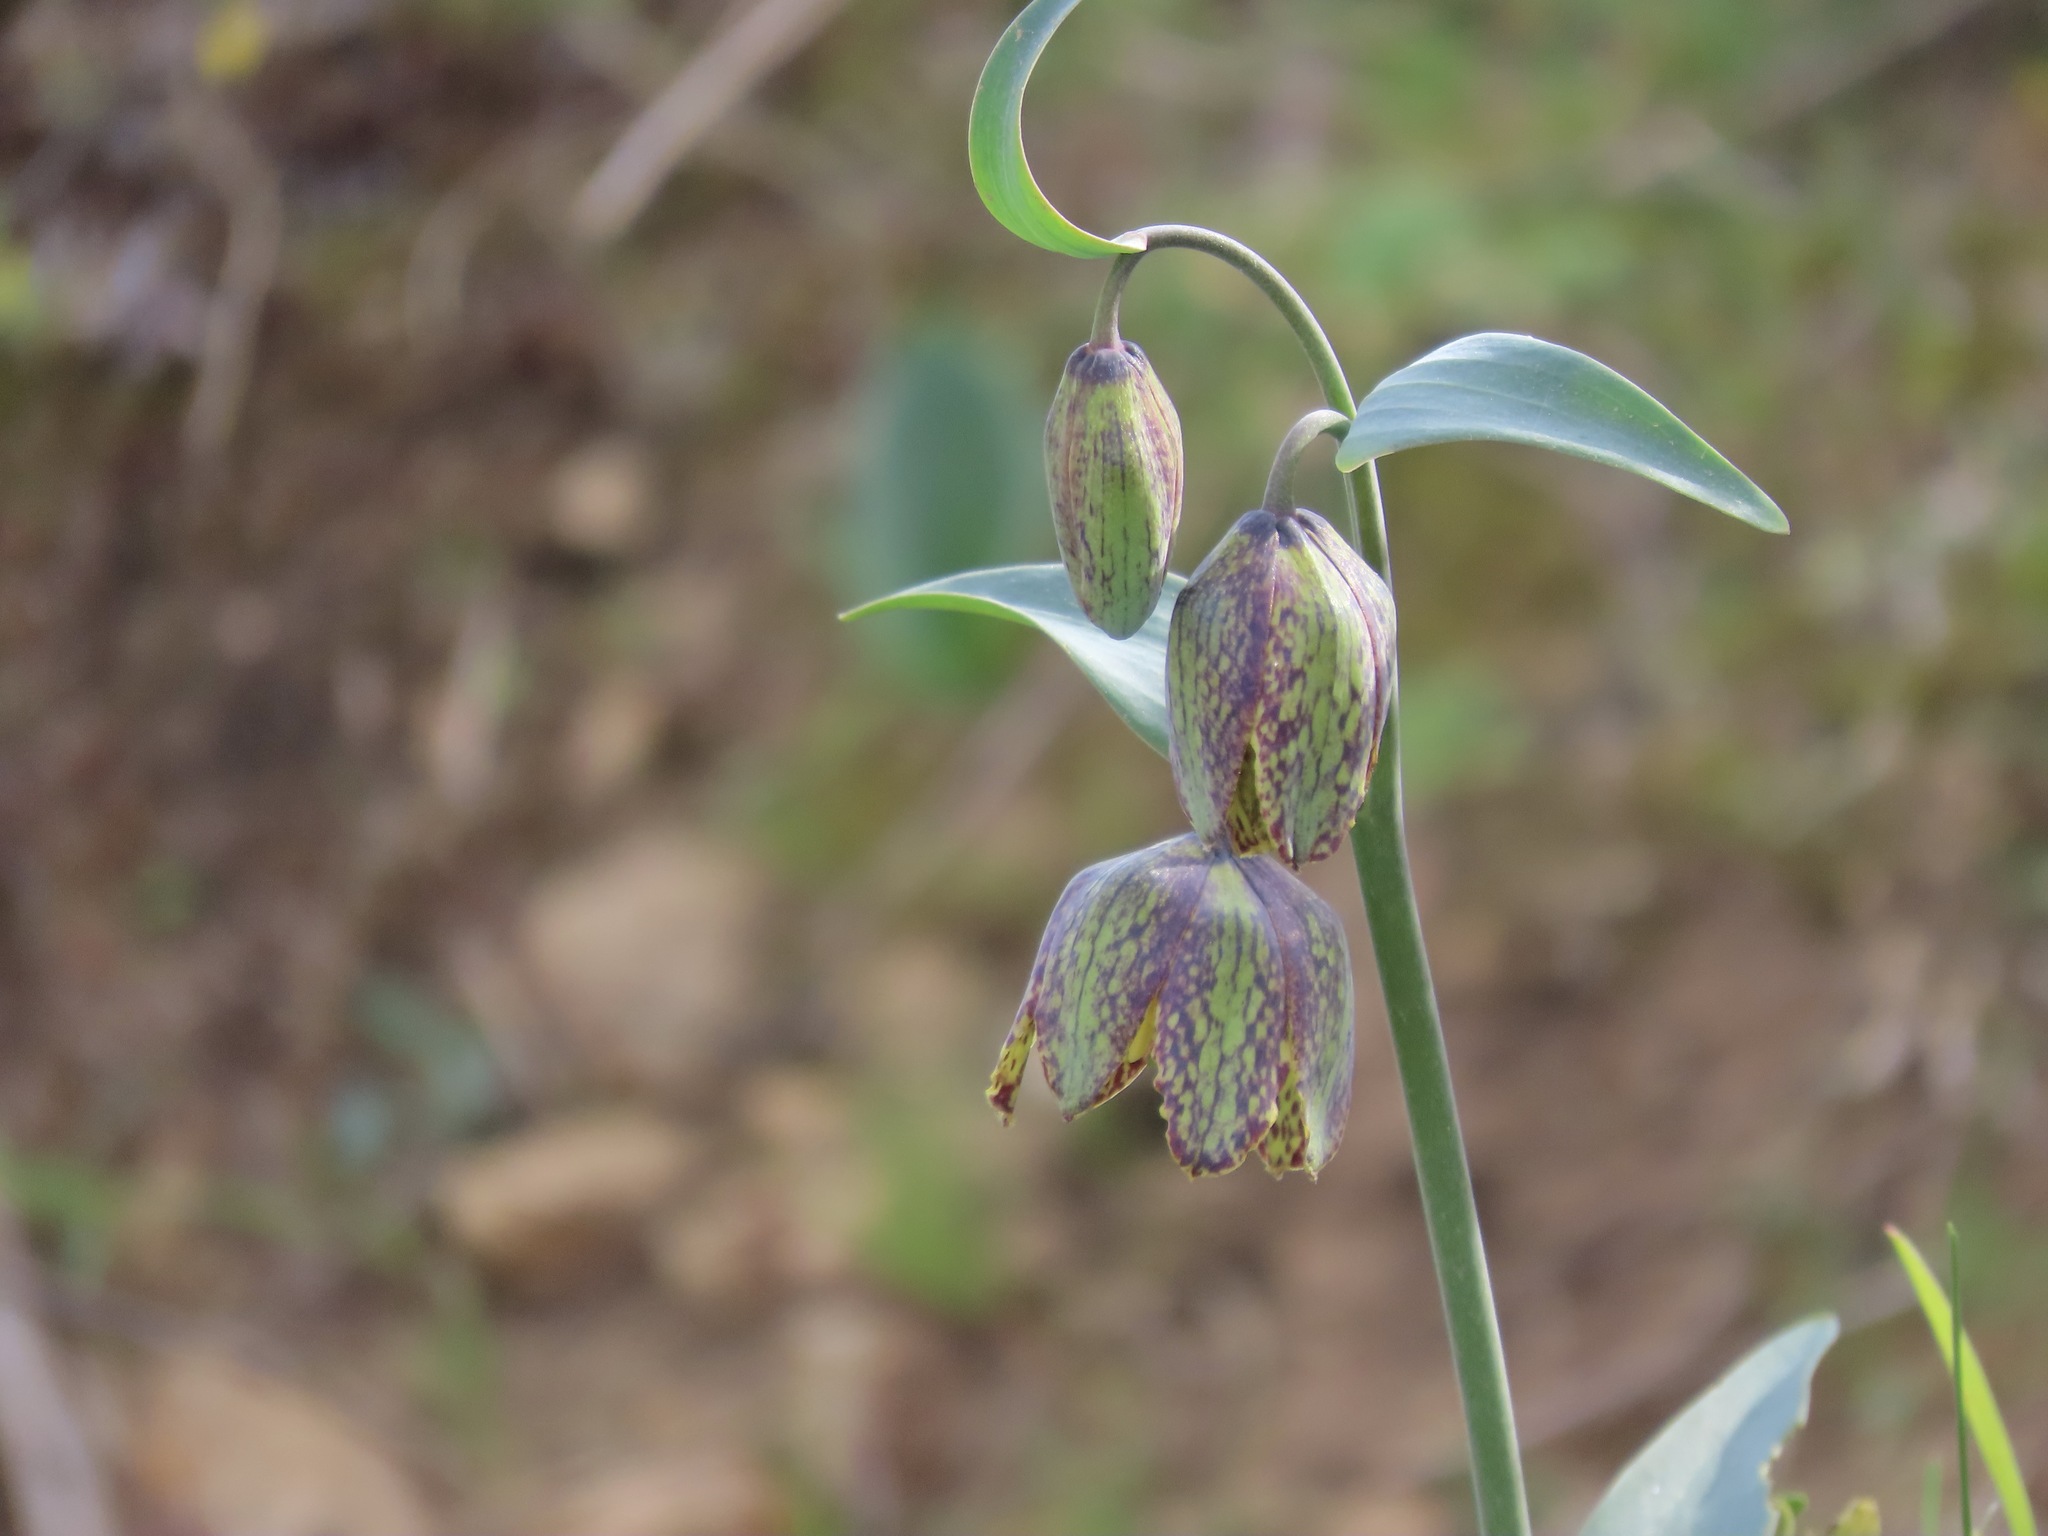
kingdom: Plantae
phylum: Tracheophyta
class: Liliopsida
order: Liliales
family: Liliaceae
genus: Fritillaria
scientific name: Fritillaria affinis
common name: Ojai fritillary
